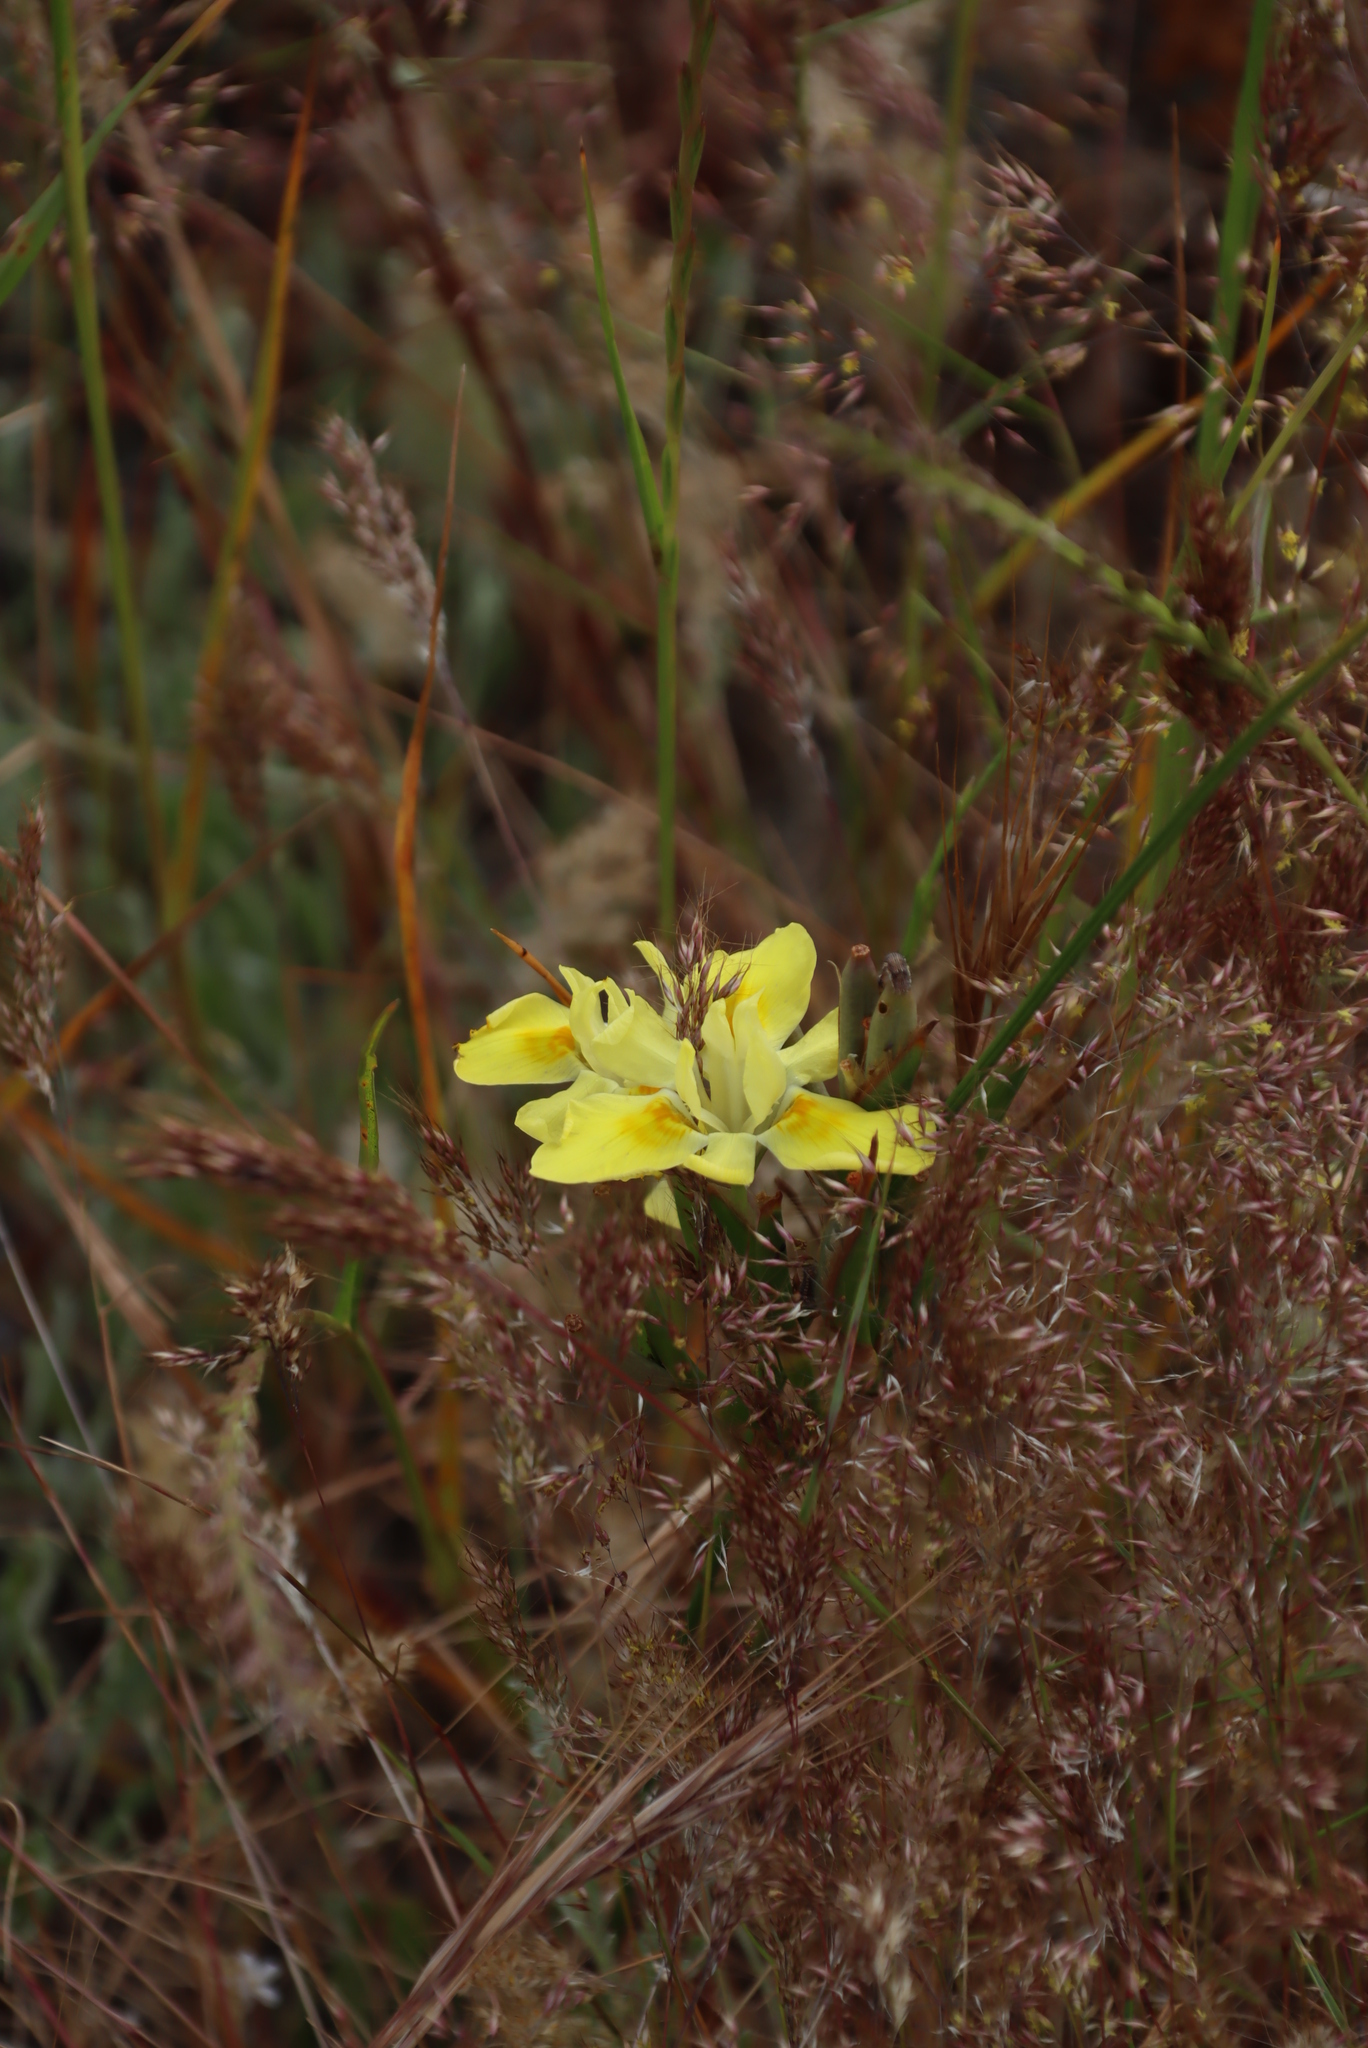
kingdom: Plantae
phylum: Tracheophyta
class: Liliopsida
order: Asparagales
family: Iridaceae
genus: Moraea
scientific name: Moraea fugax
